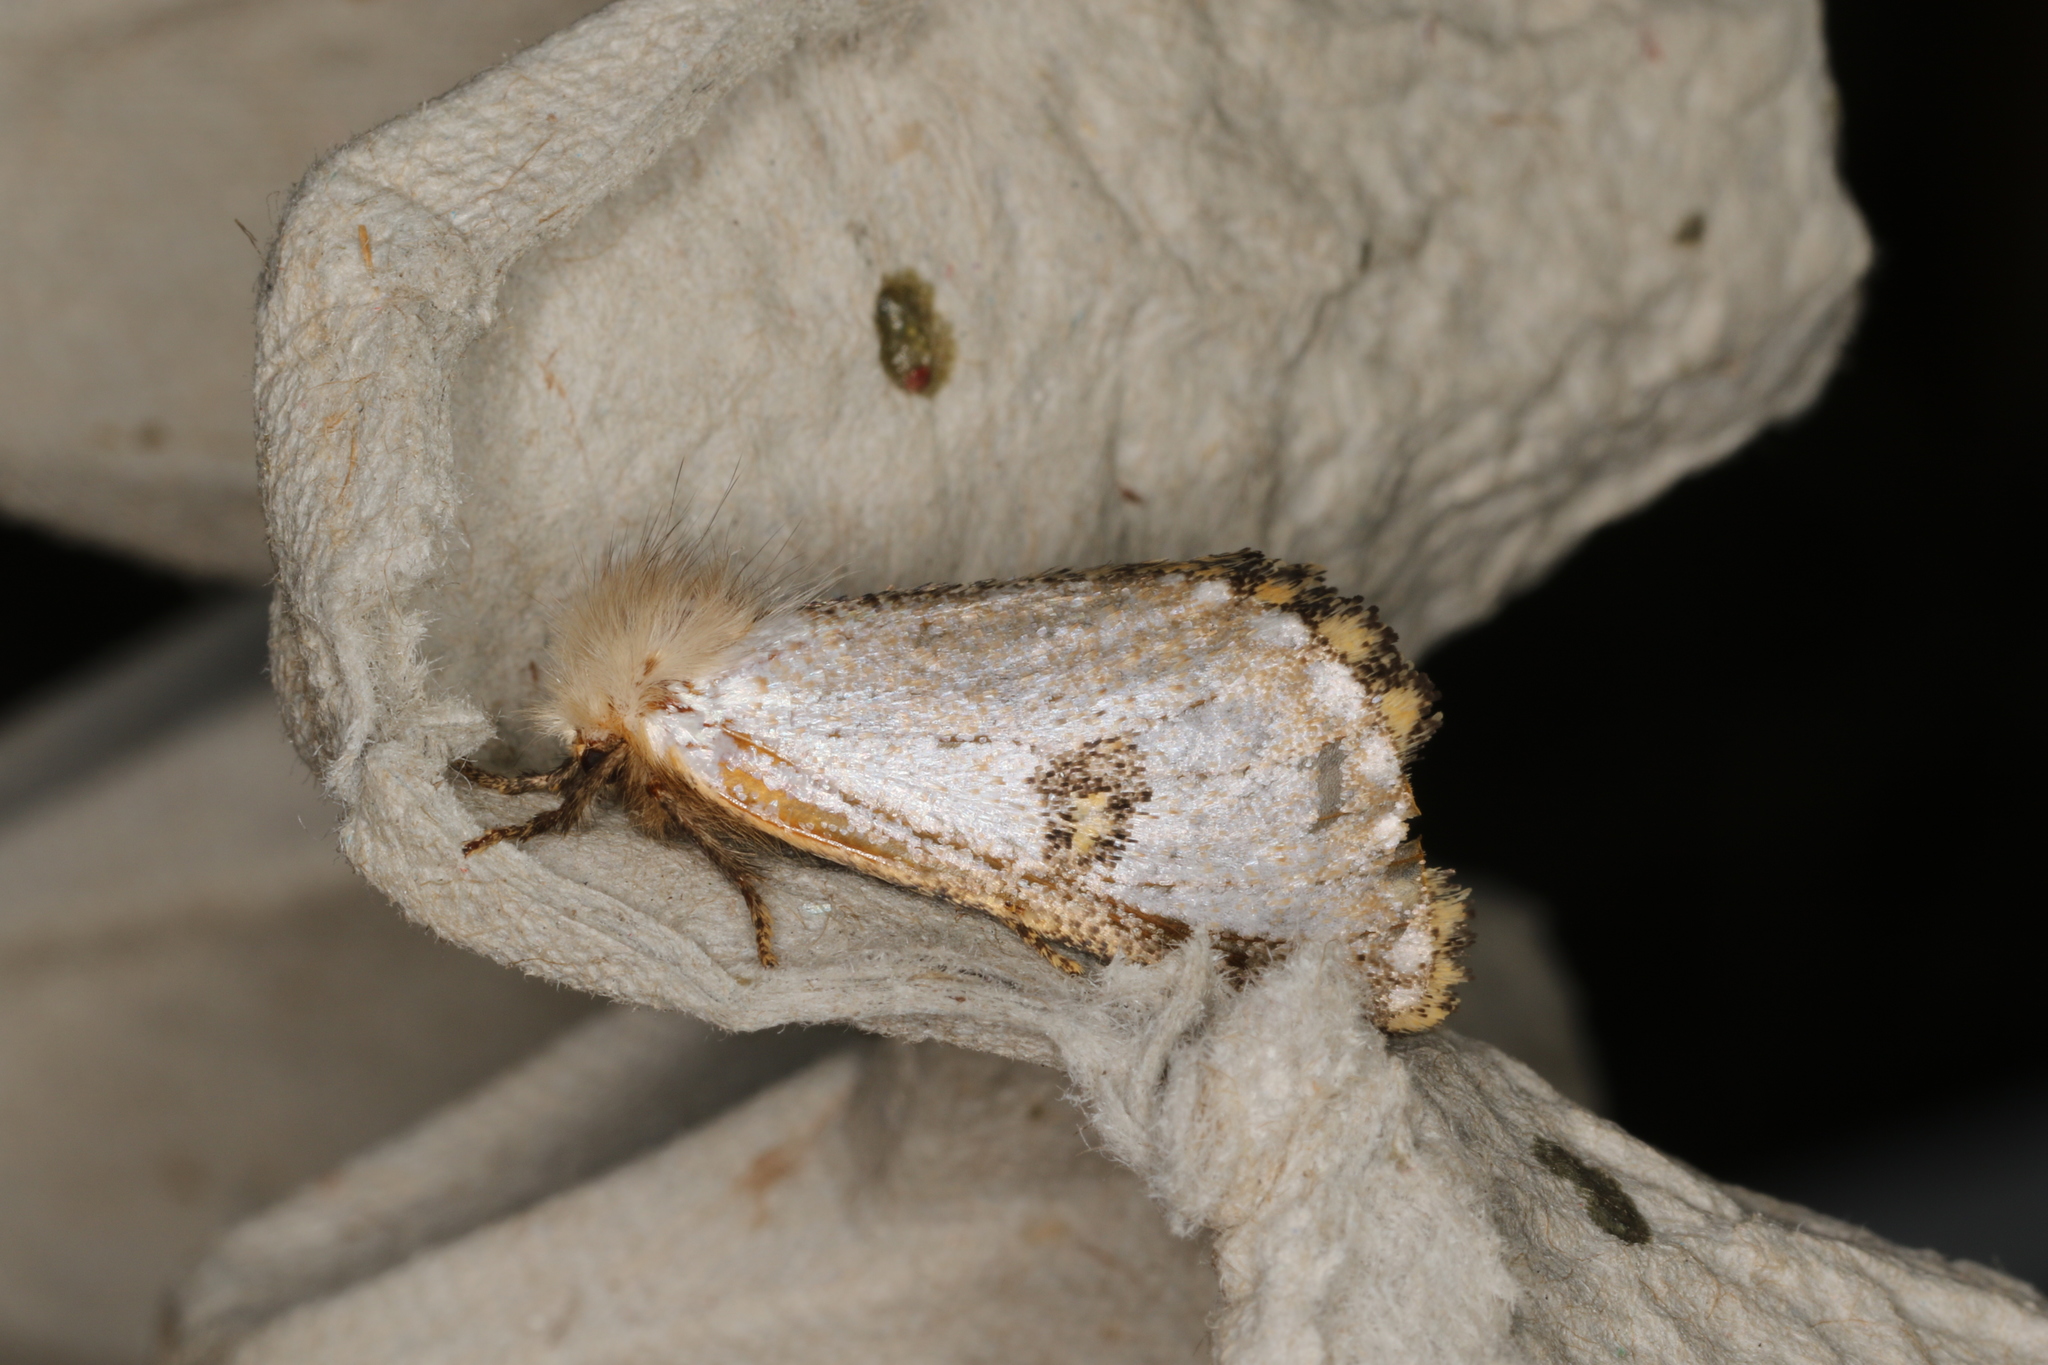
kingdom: Animalia
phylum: Arthropoda
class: Insecta
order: Lepidoptera
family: Notodontidae
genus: Epicoma
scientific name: Epicoma melanosticta
